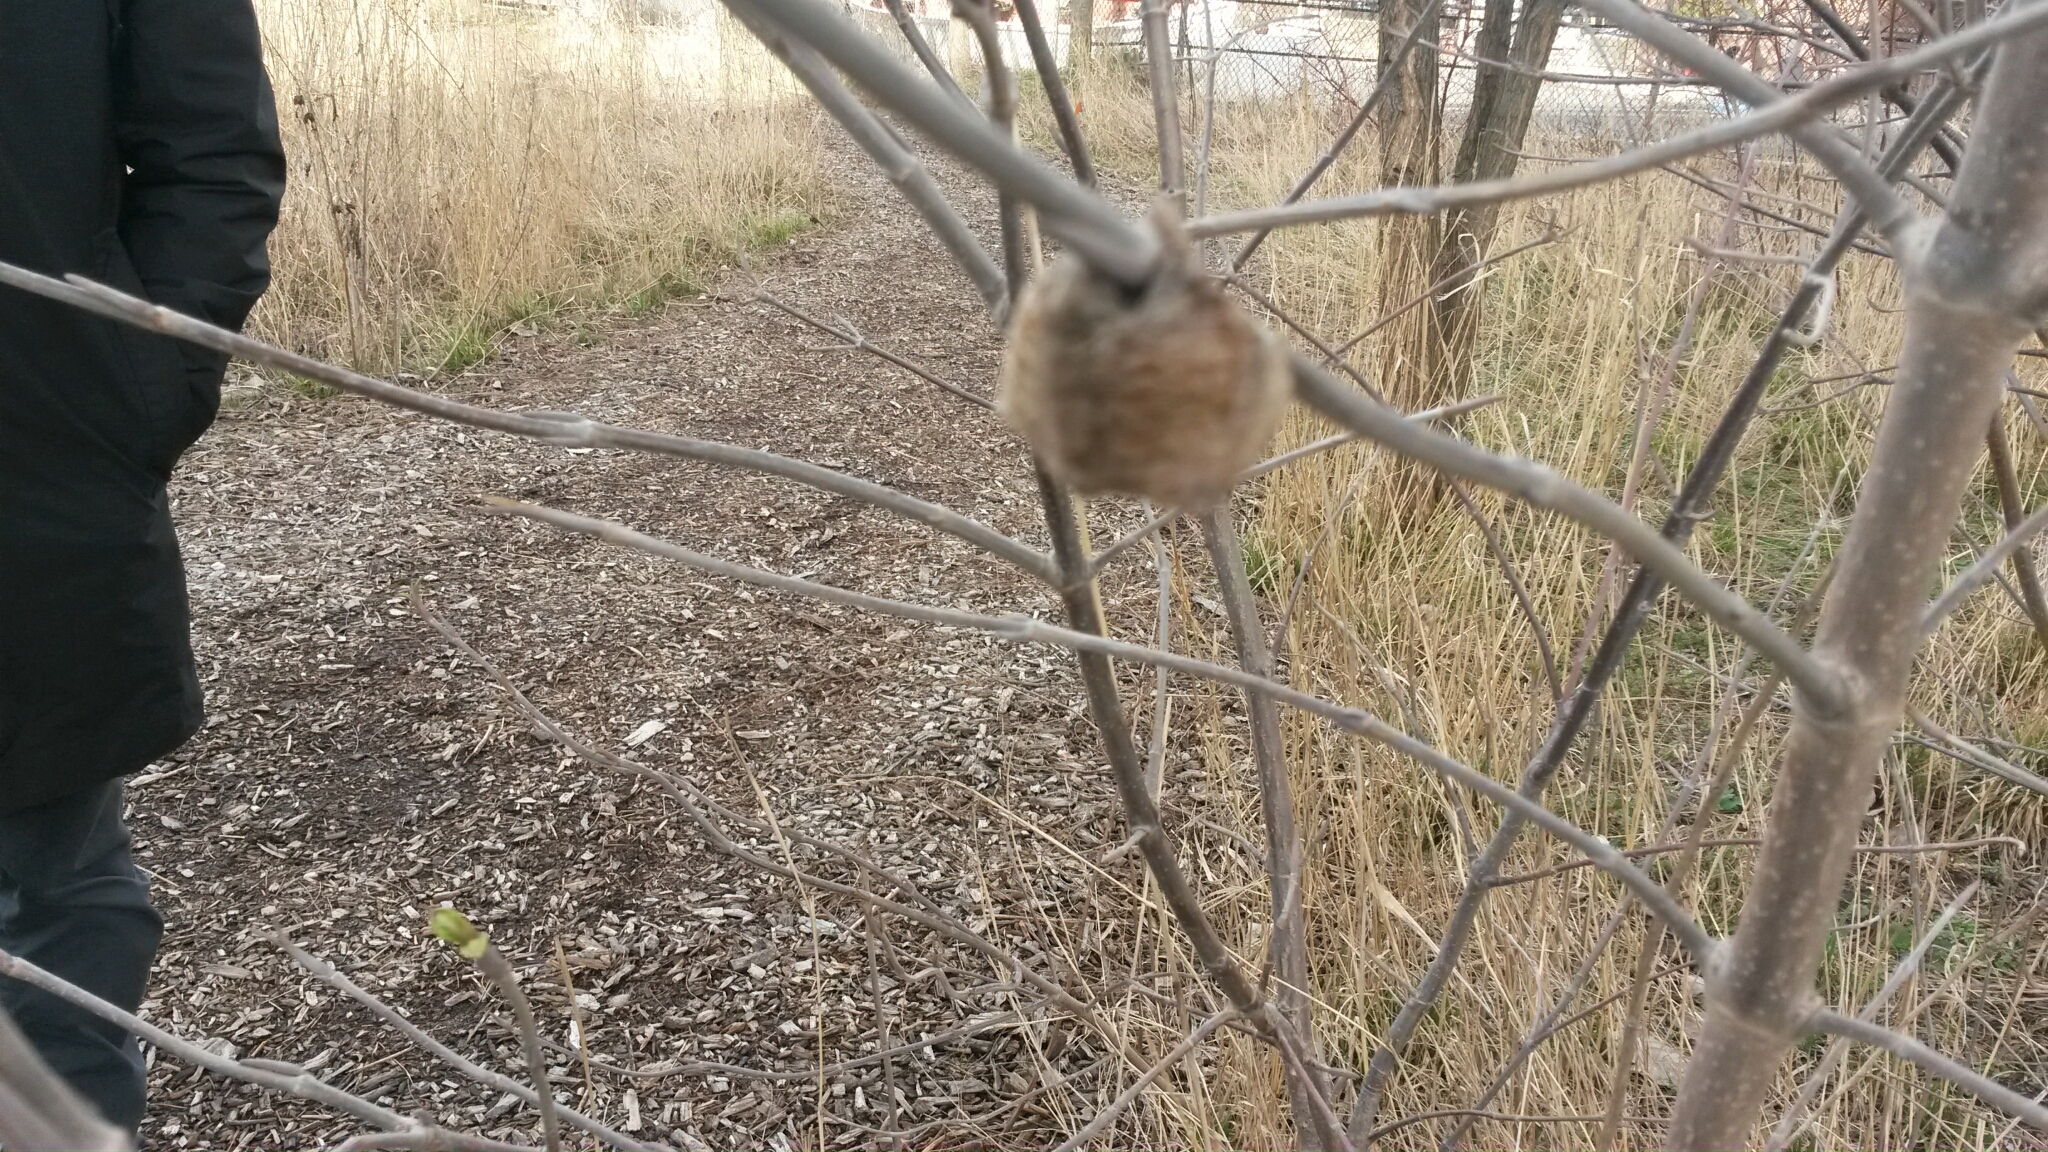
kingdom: Animalia
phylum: Arthropoda
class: Insecta
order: Mantodea
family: Mantidae
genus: Tenodera
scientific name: Tenodera sinensis
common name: Chinese mantis
